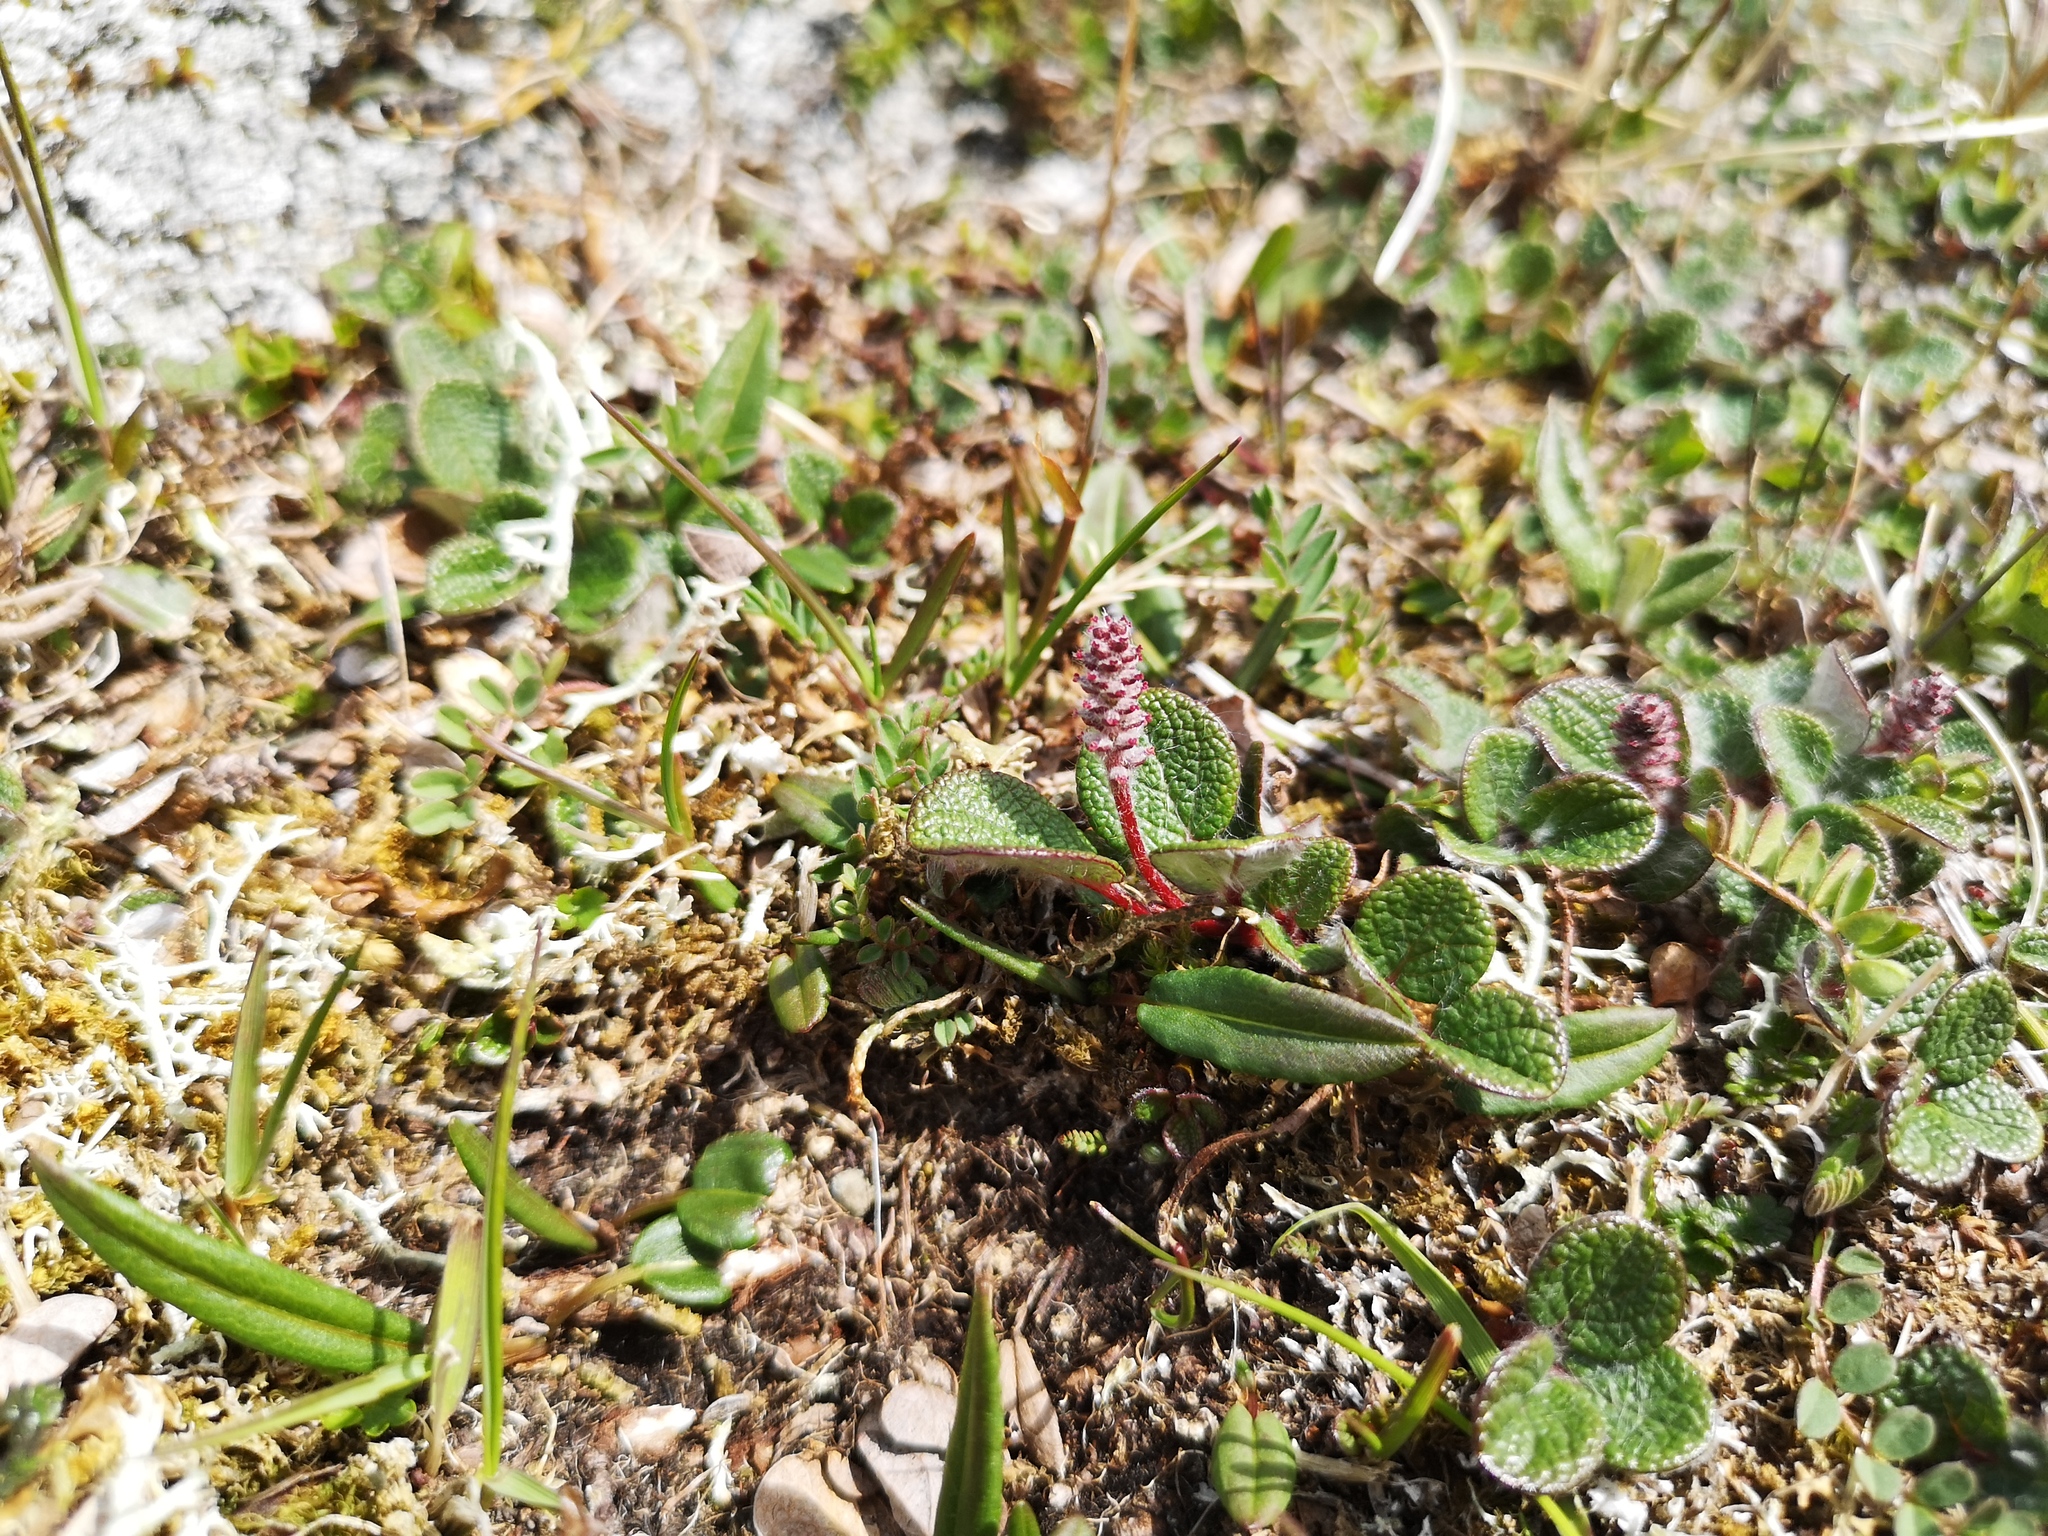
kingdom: Plantae
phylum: Tracheophyta
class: Magnoliopsida
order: Malpighiales
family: Salicaceae
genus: Salix
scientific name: Salix reticulata
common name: Net-leaved willow
